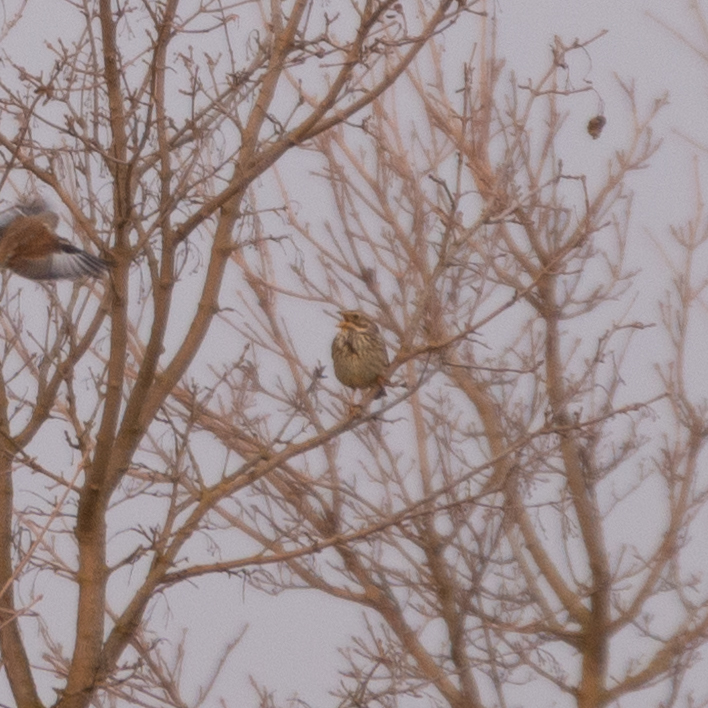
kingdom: Animalia
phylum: Chordata
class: Aves
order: Passeriformes
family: Emberizidae
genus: Emberiza
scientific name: Emberiza calandra
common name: Corn bunting
